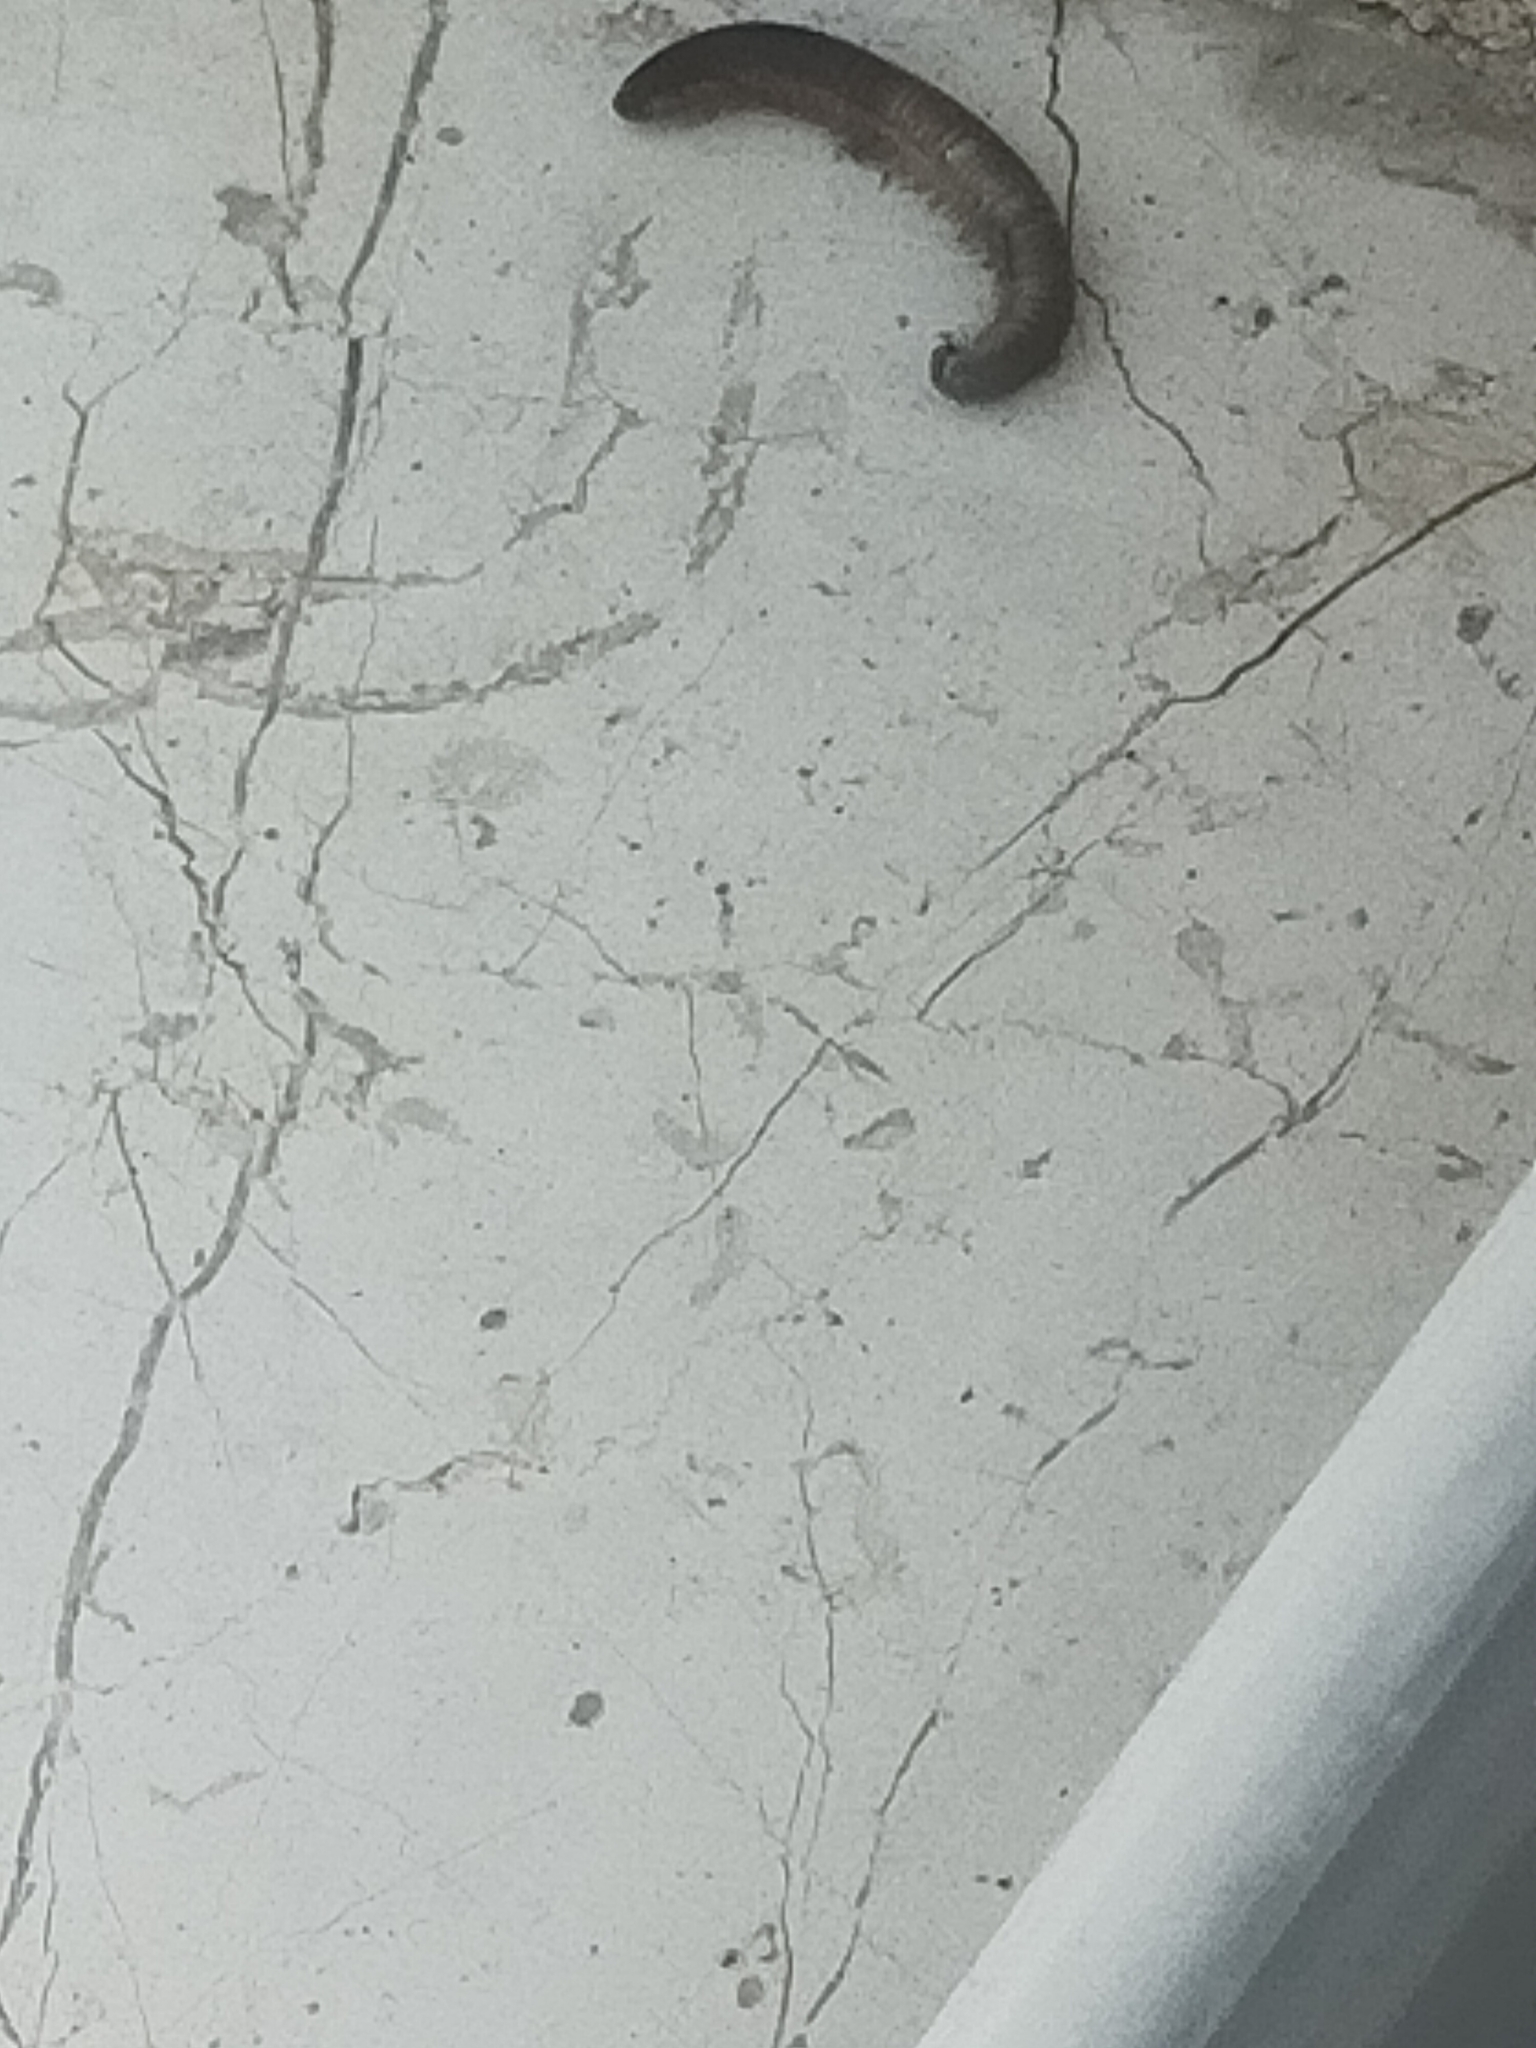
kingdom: Animalia
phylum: Arthropoda
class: Diplopoda
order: Julida
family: Julidae
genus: Pachyiulus
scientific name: Pachyiulus flavipes
